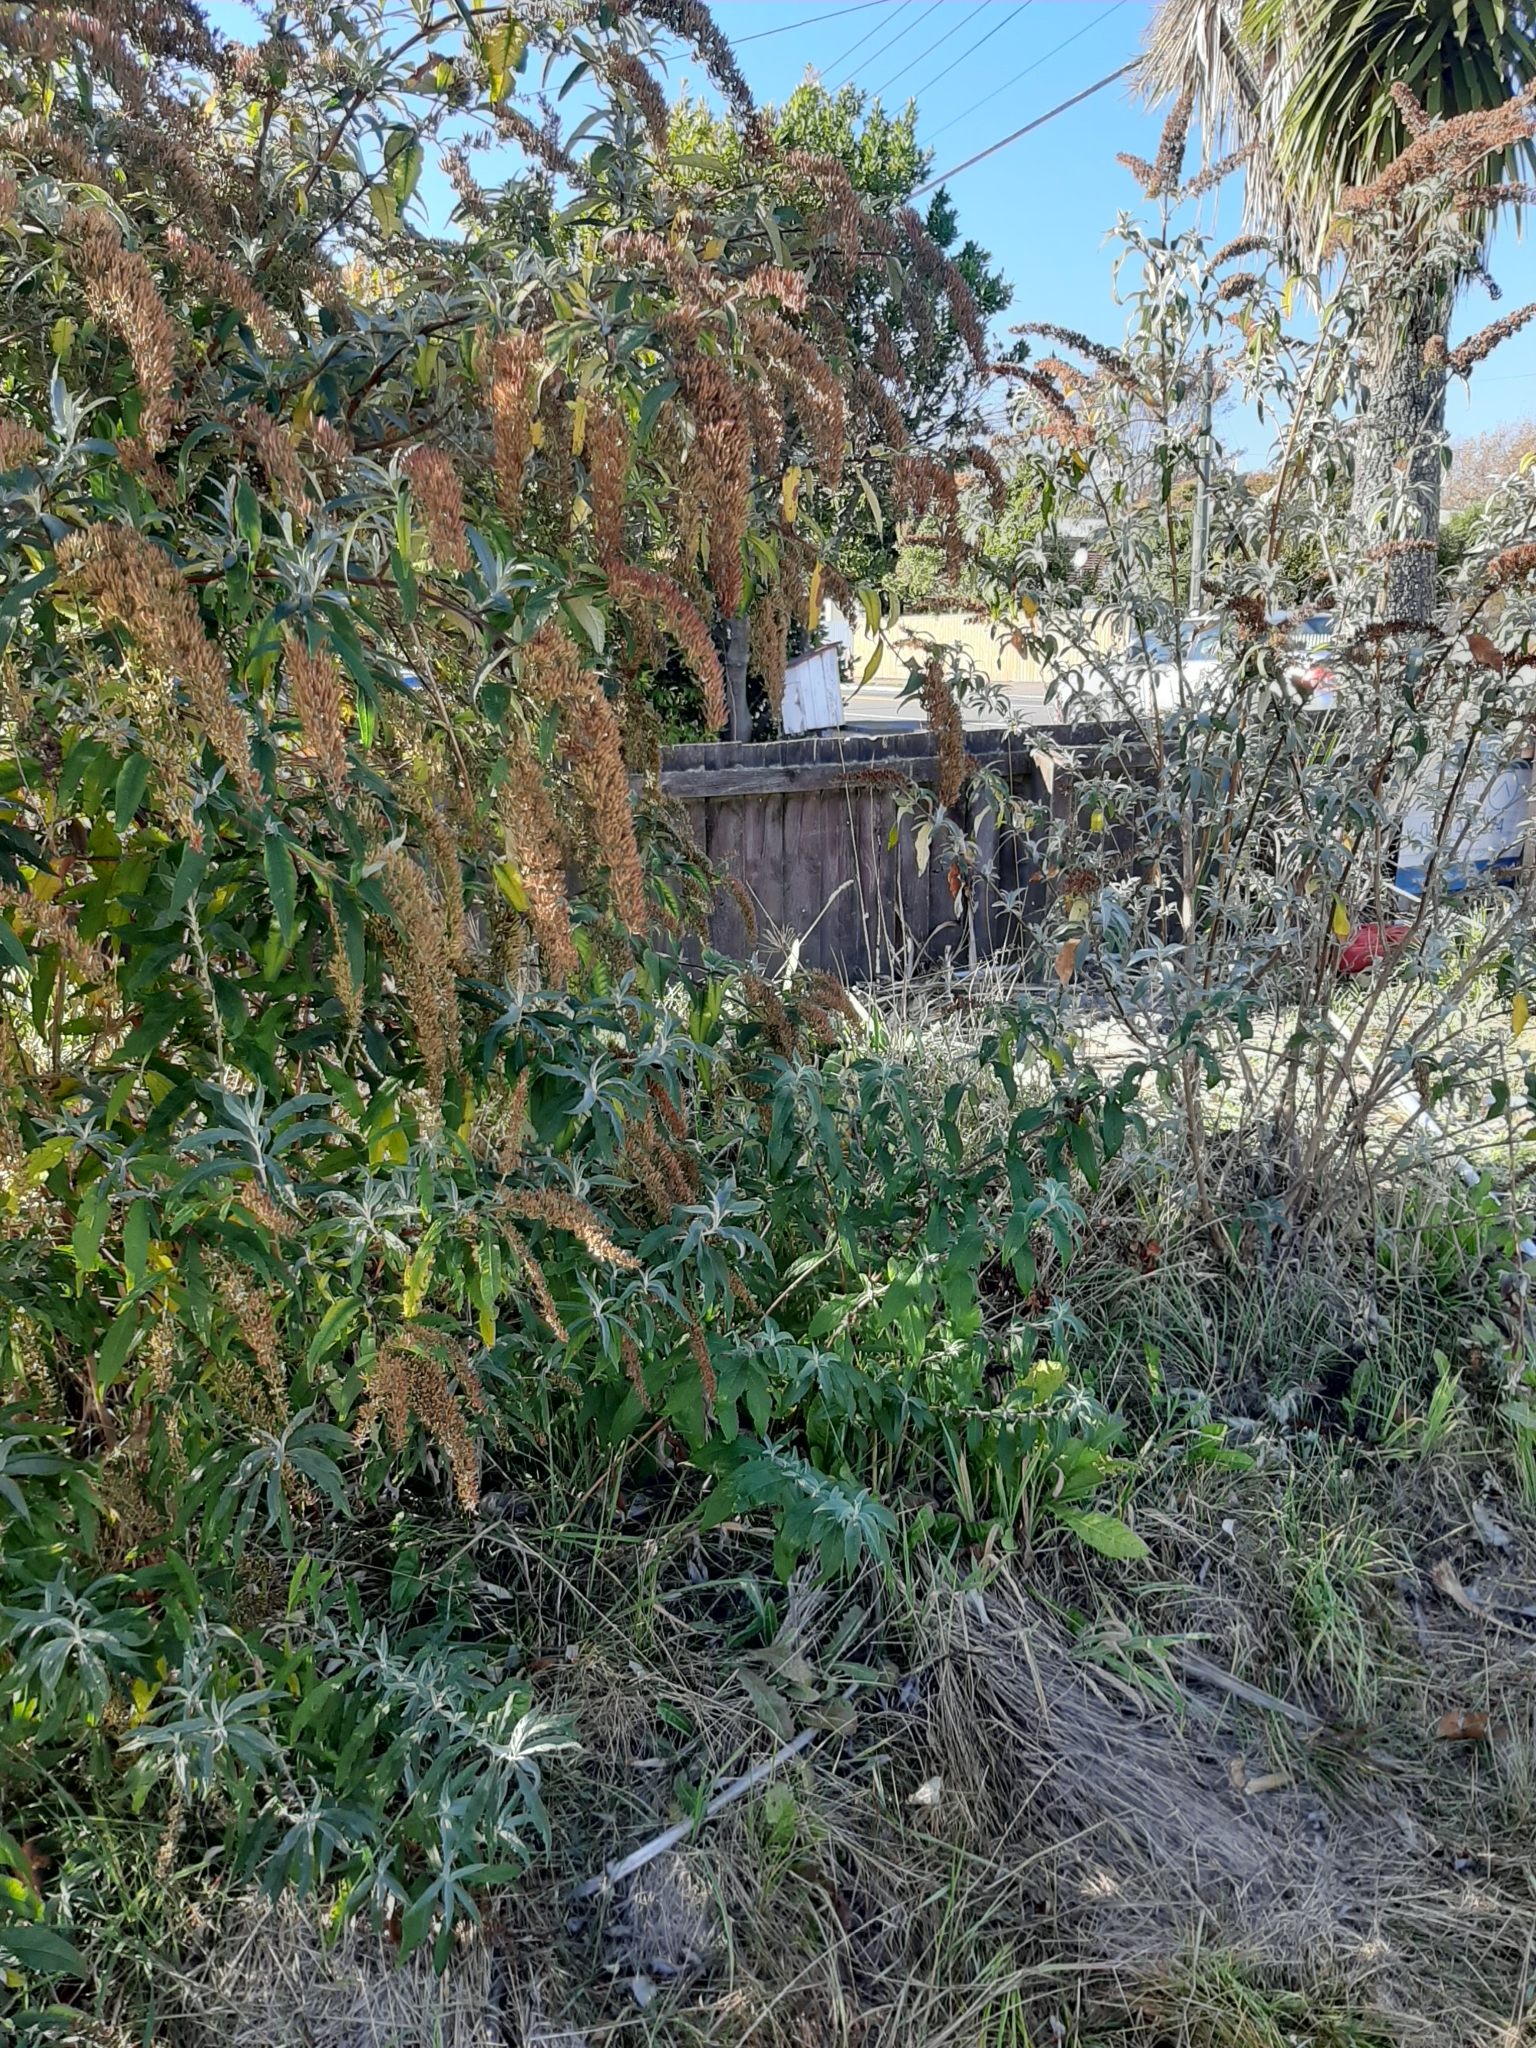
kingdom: Plantae
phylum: Tracheophyta
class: Magnoliopsida
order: Lamiales
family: Scrophulariaceae
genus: Buddleja
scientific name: Buddleja davidii
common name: Butterfly-bush
